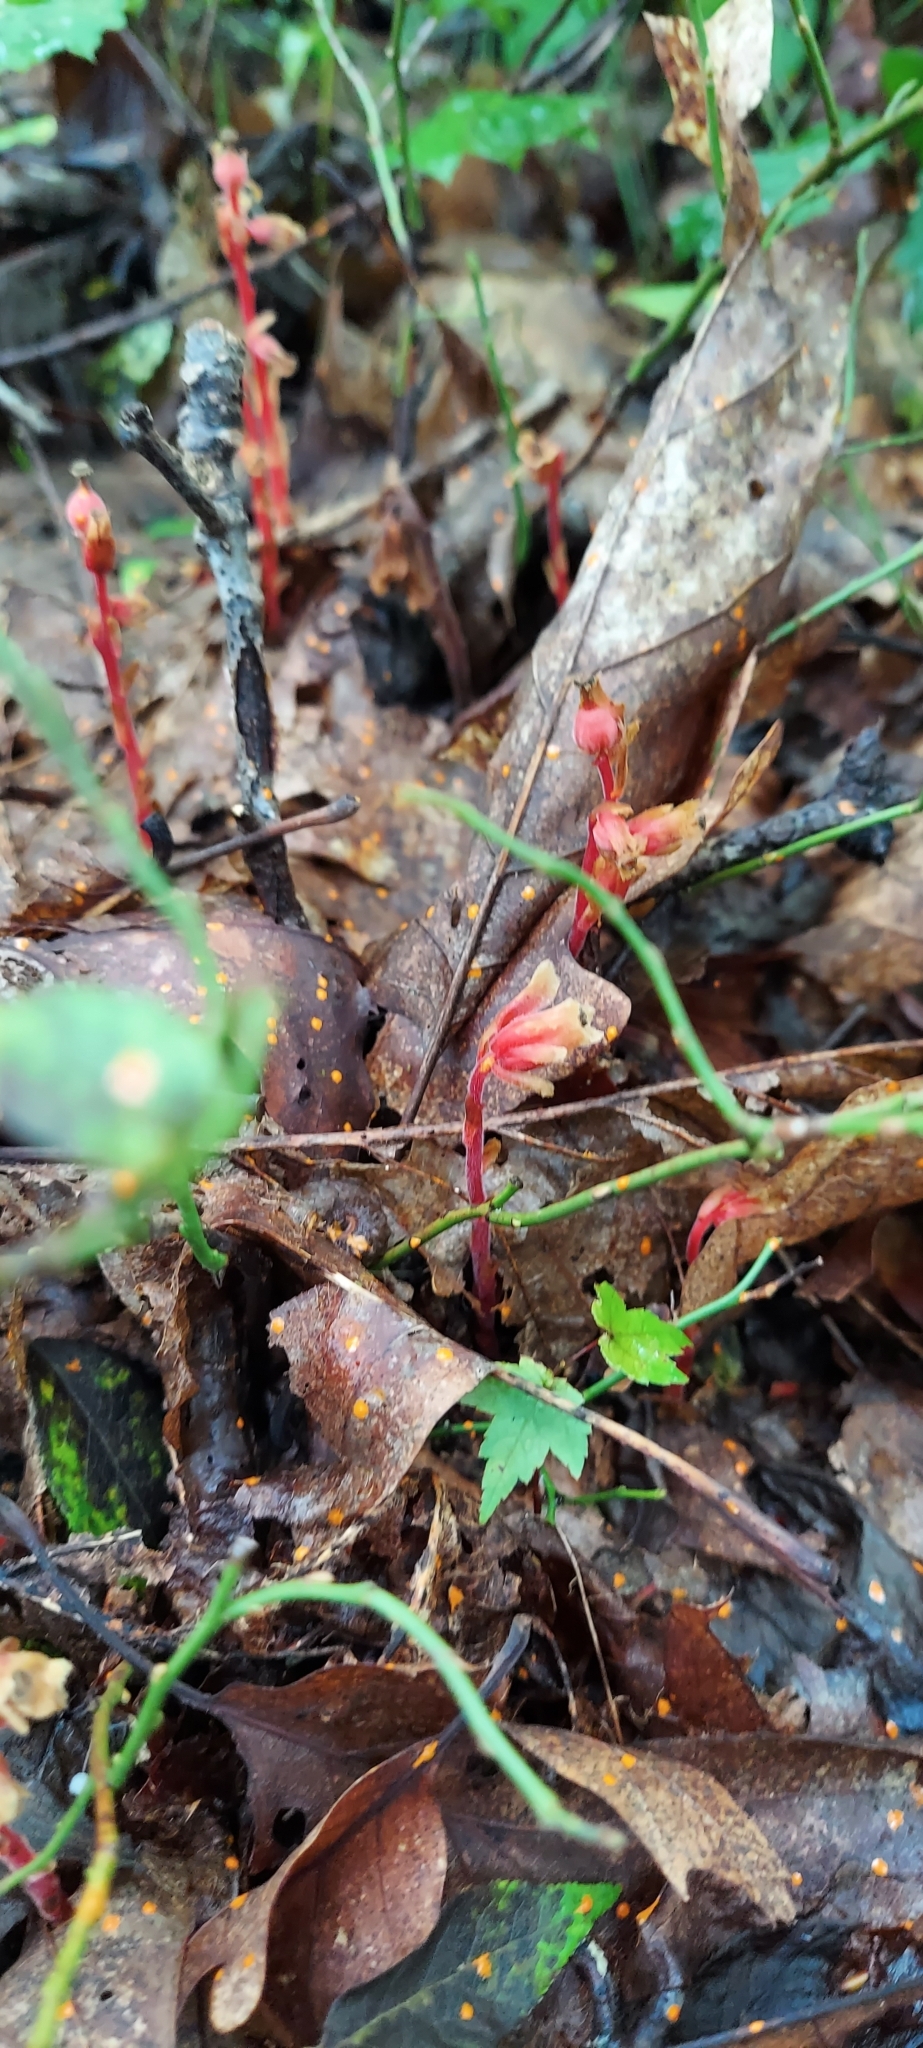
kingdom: Plantae
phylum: Tracheophyta
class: Magnoliopsida
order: Ericales
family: Ericaceae
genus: Hypopitys
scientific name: Hypopitys monotropa
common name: Yellow bird's-nest
